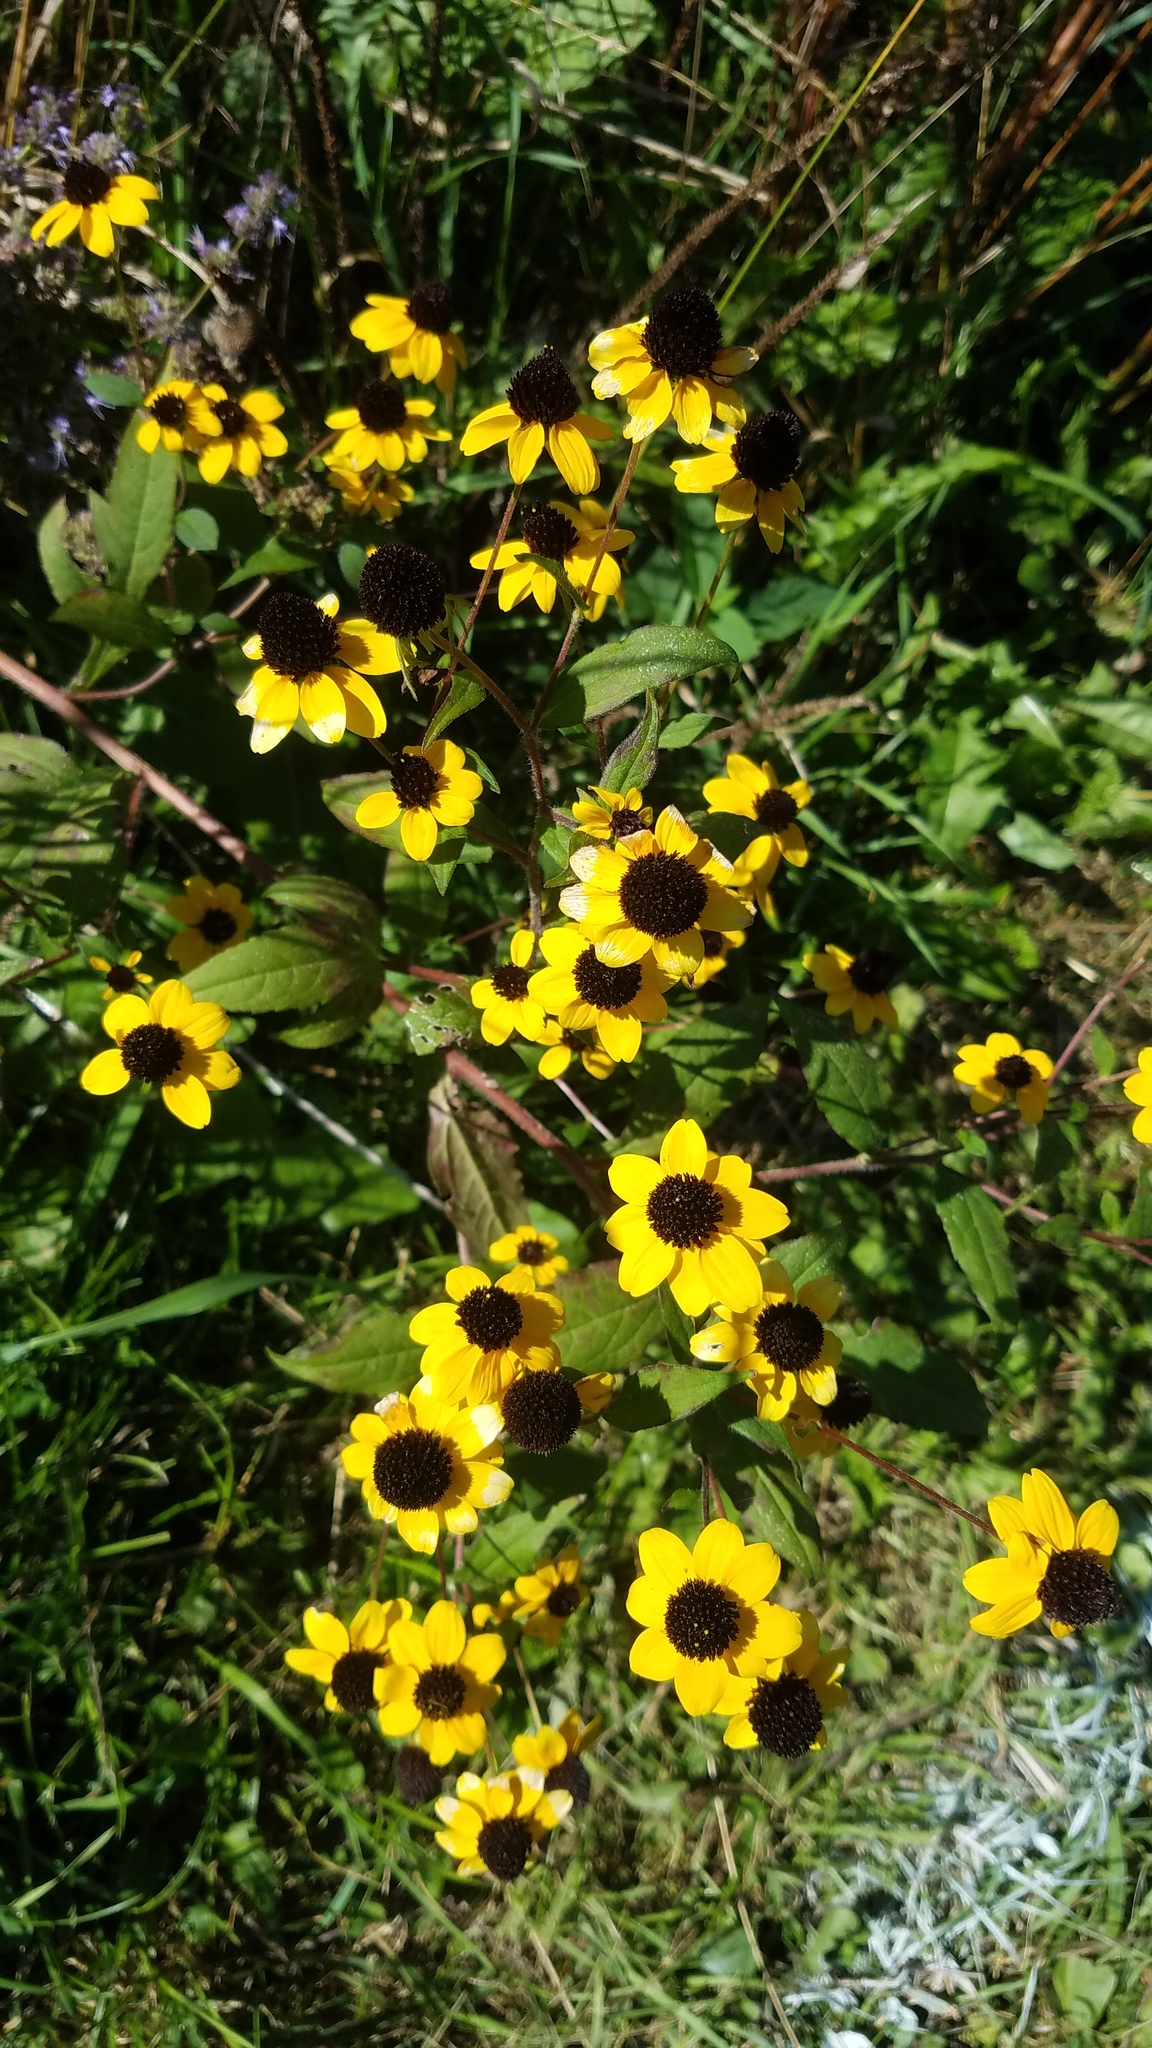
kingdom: Plantae
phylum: Tracheophyta
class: Magnoliopsida
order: Asterales
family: Asteraceae
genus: Rudbeckia
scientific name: Rudbeckia triloba
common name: Thin-leaved coneflower
